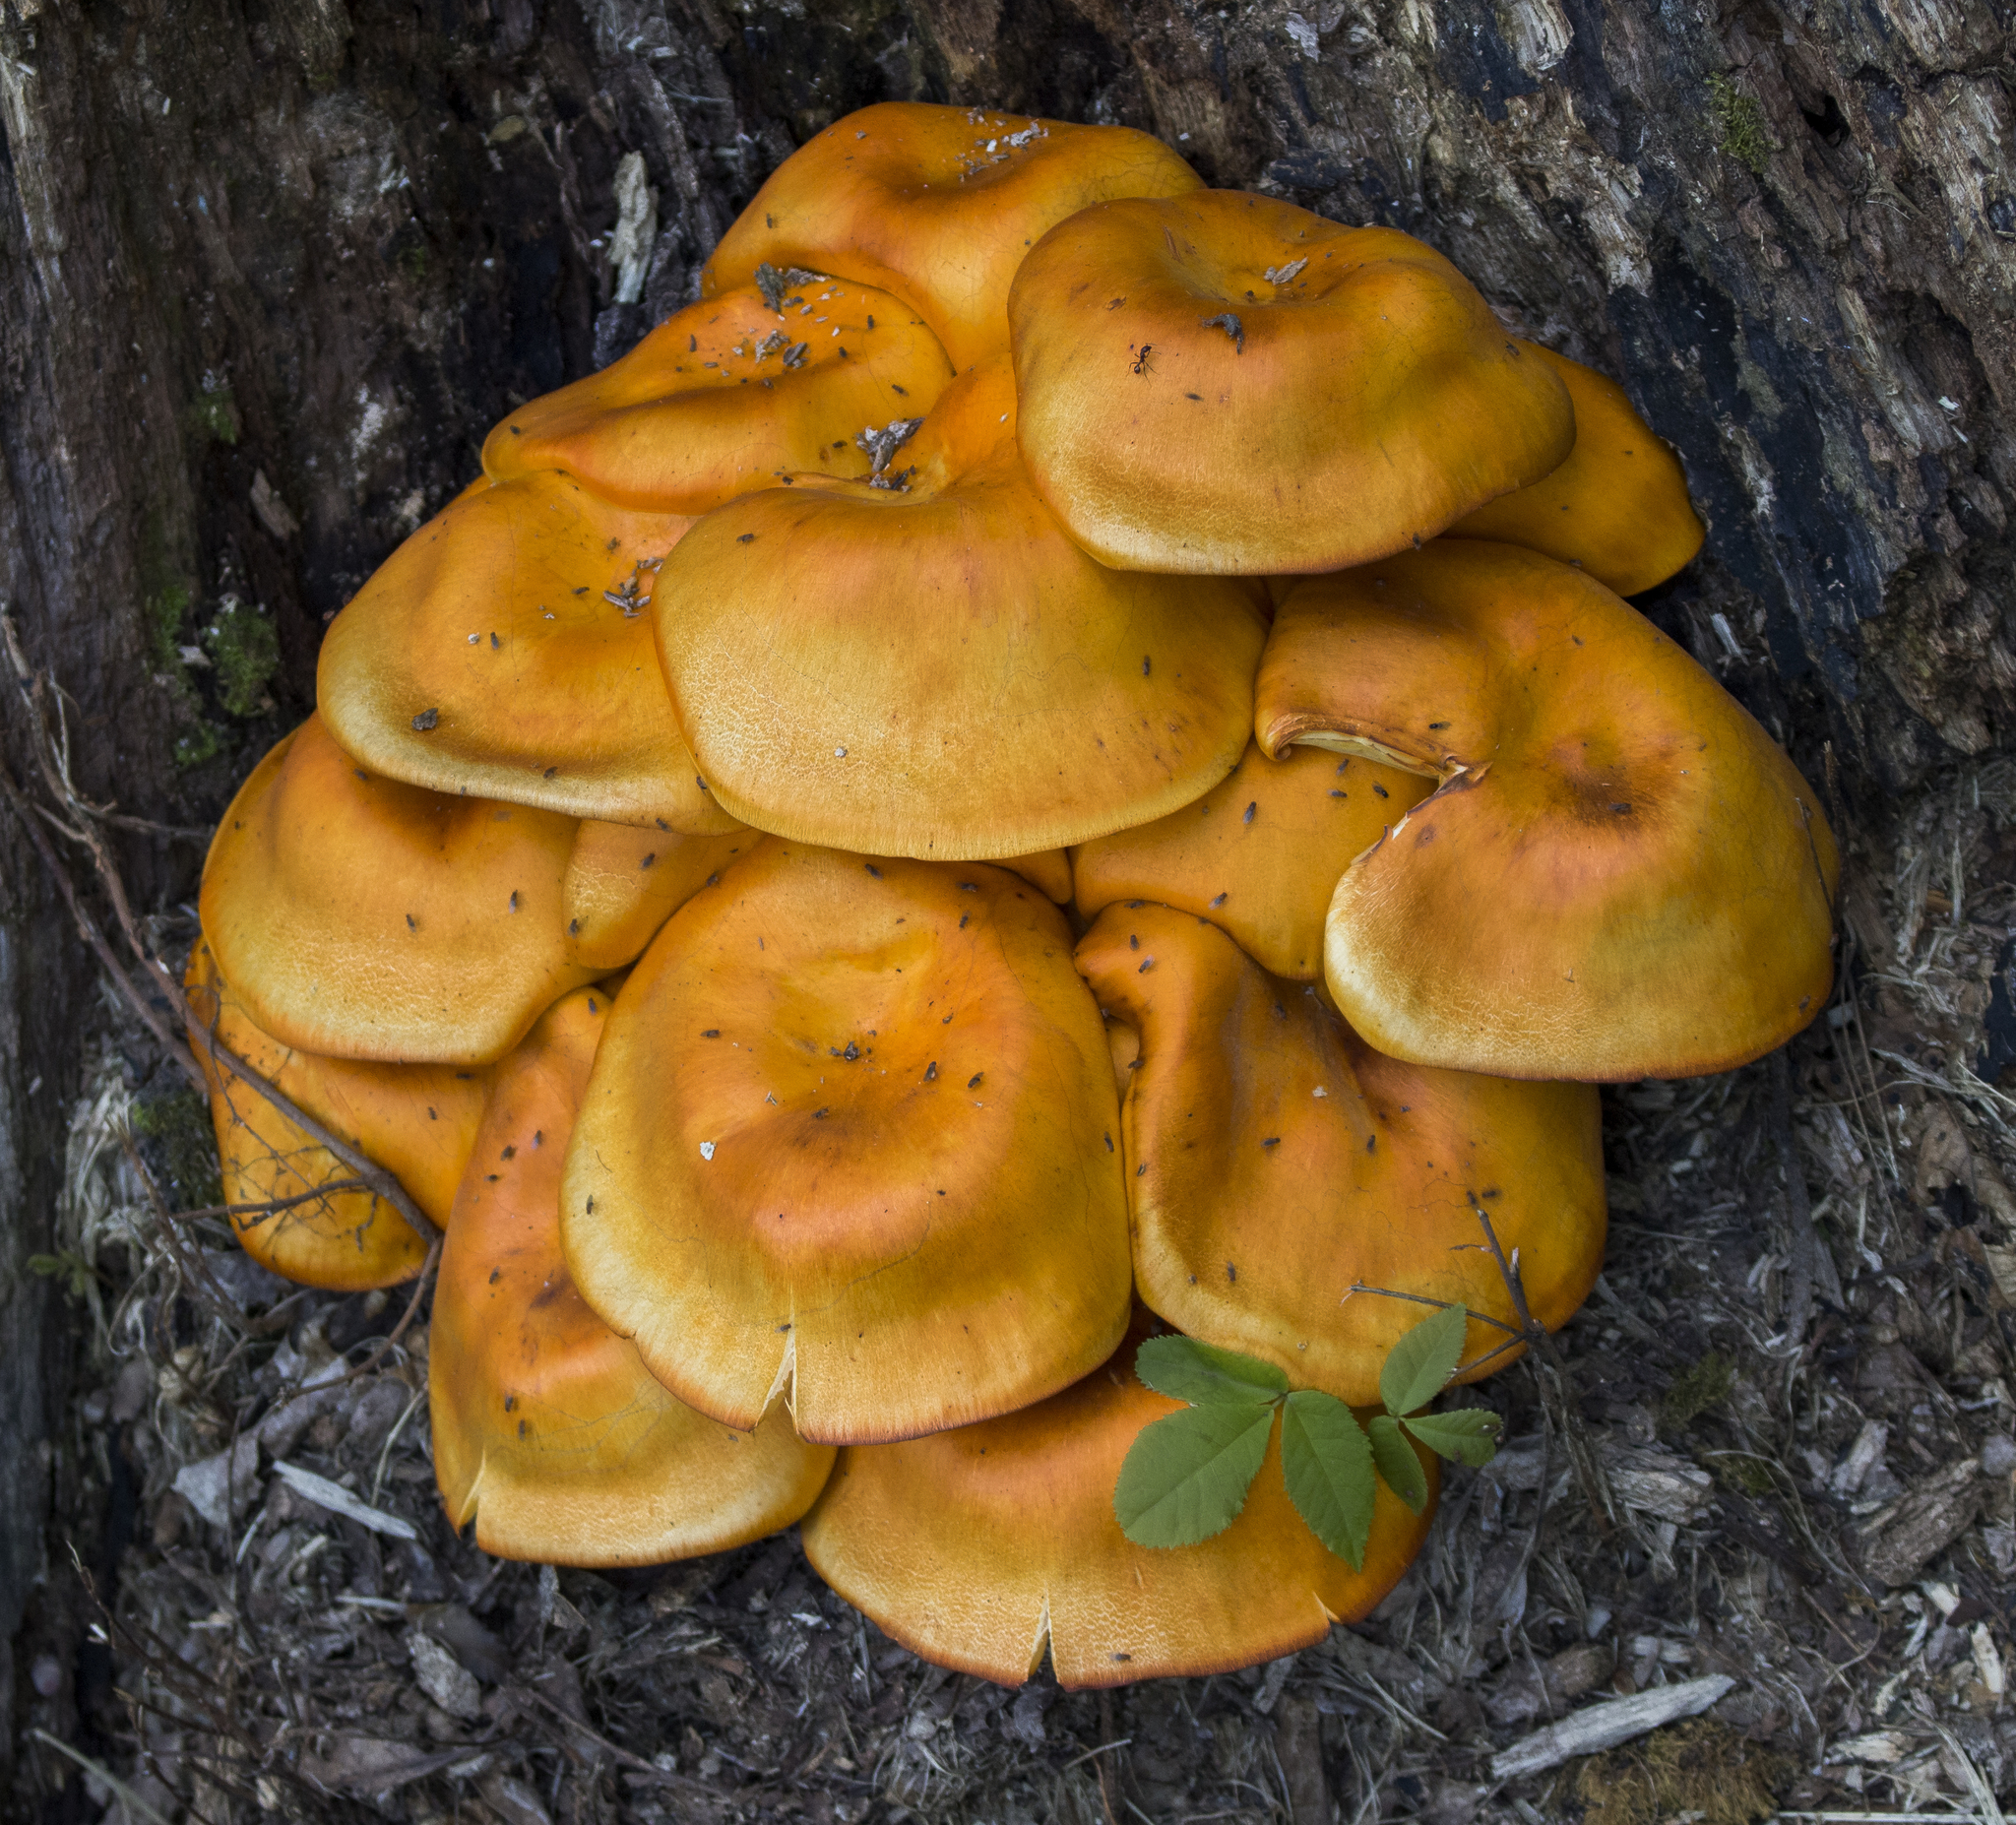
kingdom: Fungi
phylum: Basidiomycota
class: Agaricomycetes
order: Agaricales
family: Omphalotaceae
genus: Omphalotus
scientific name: Omphalotus illudens
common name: Jack o lantern
